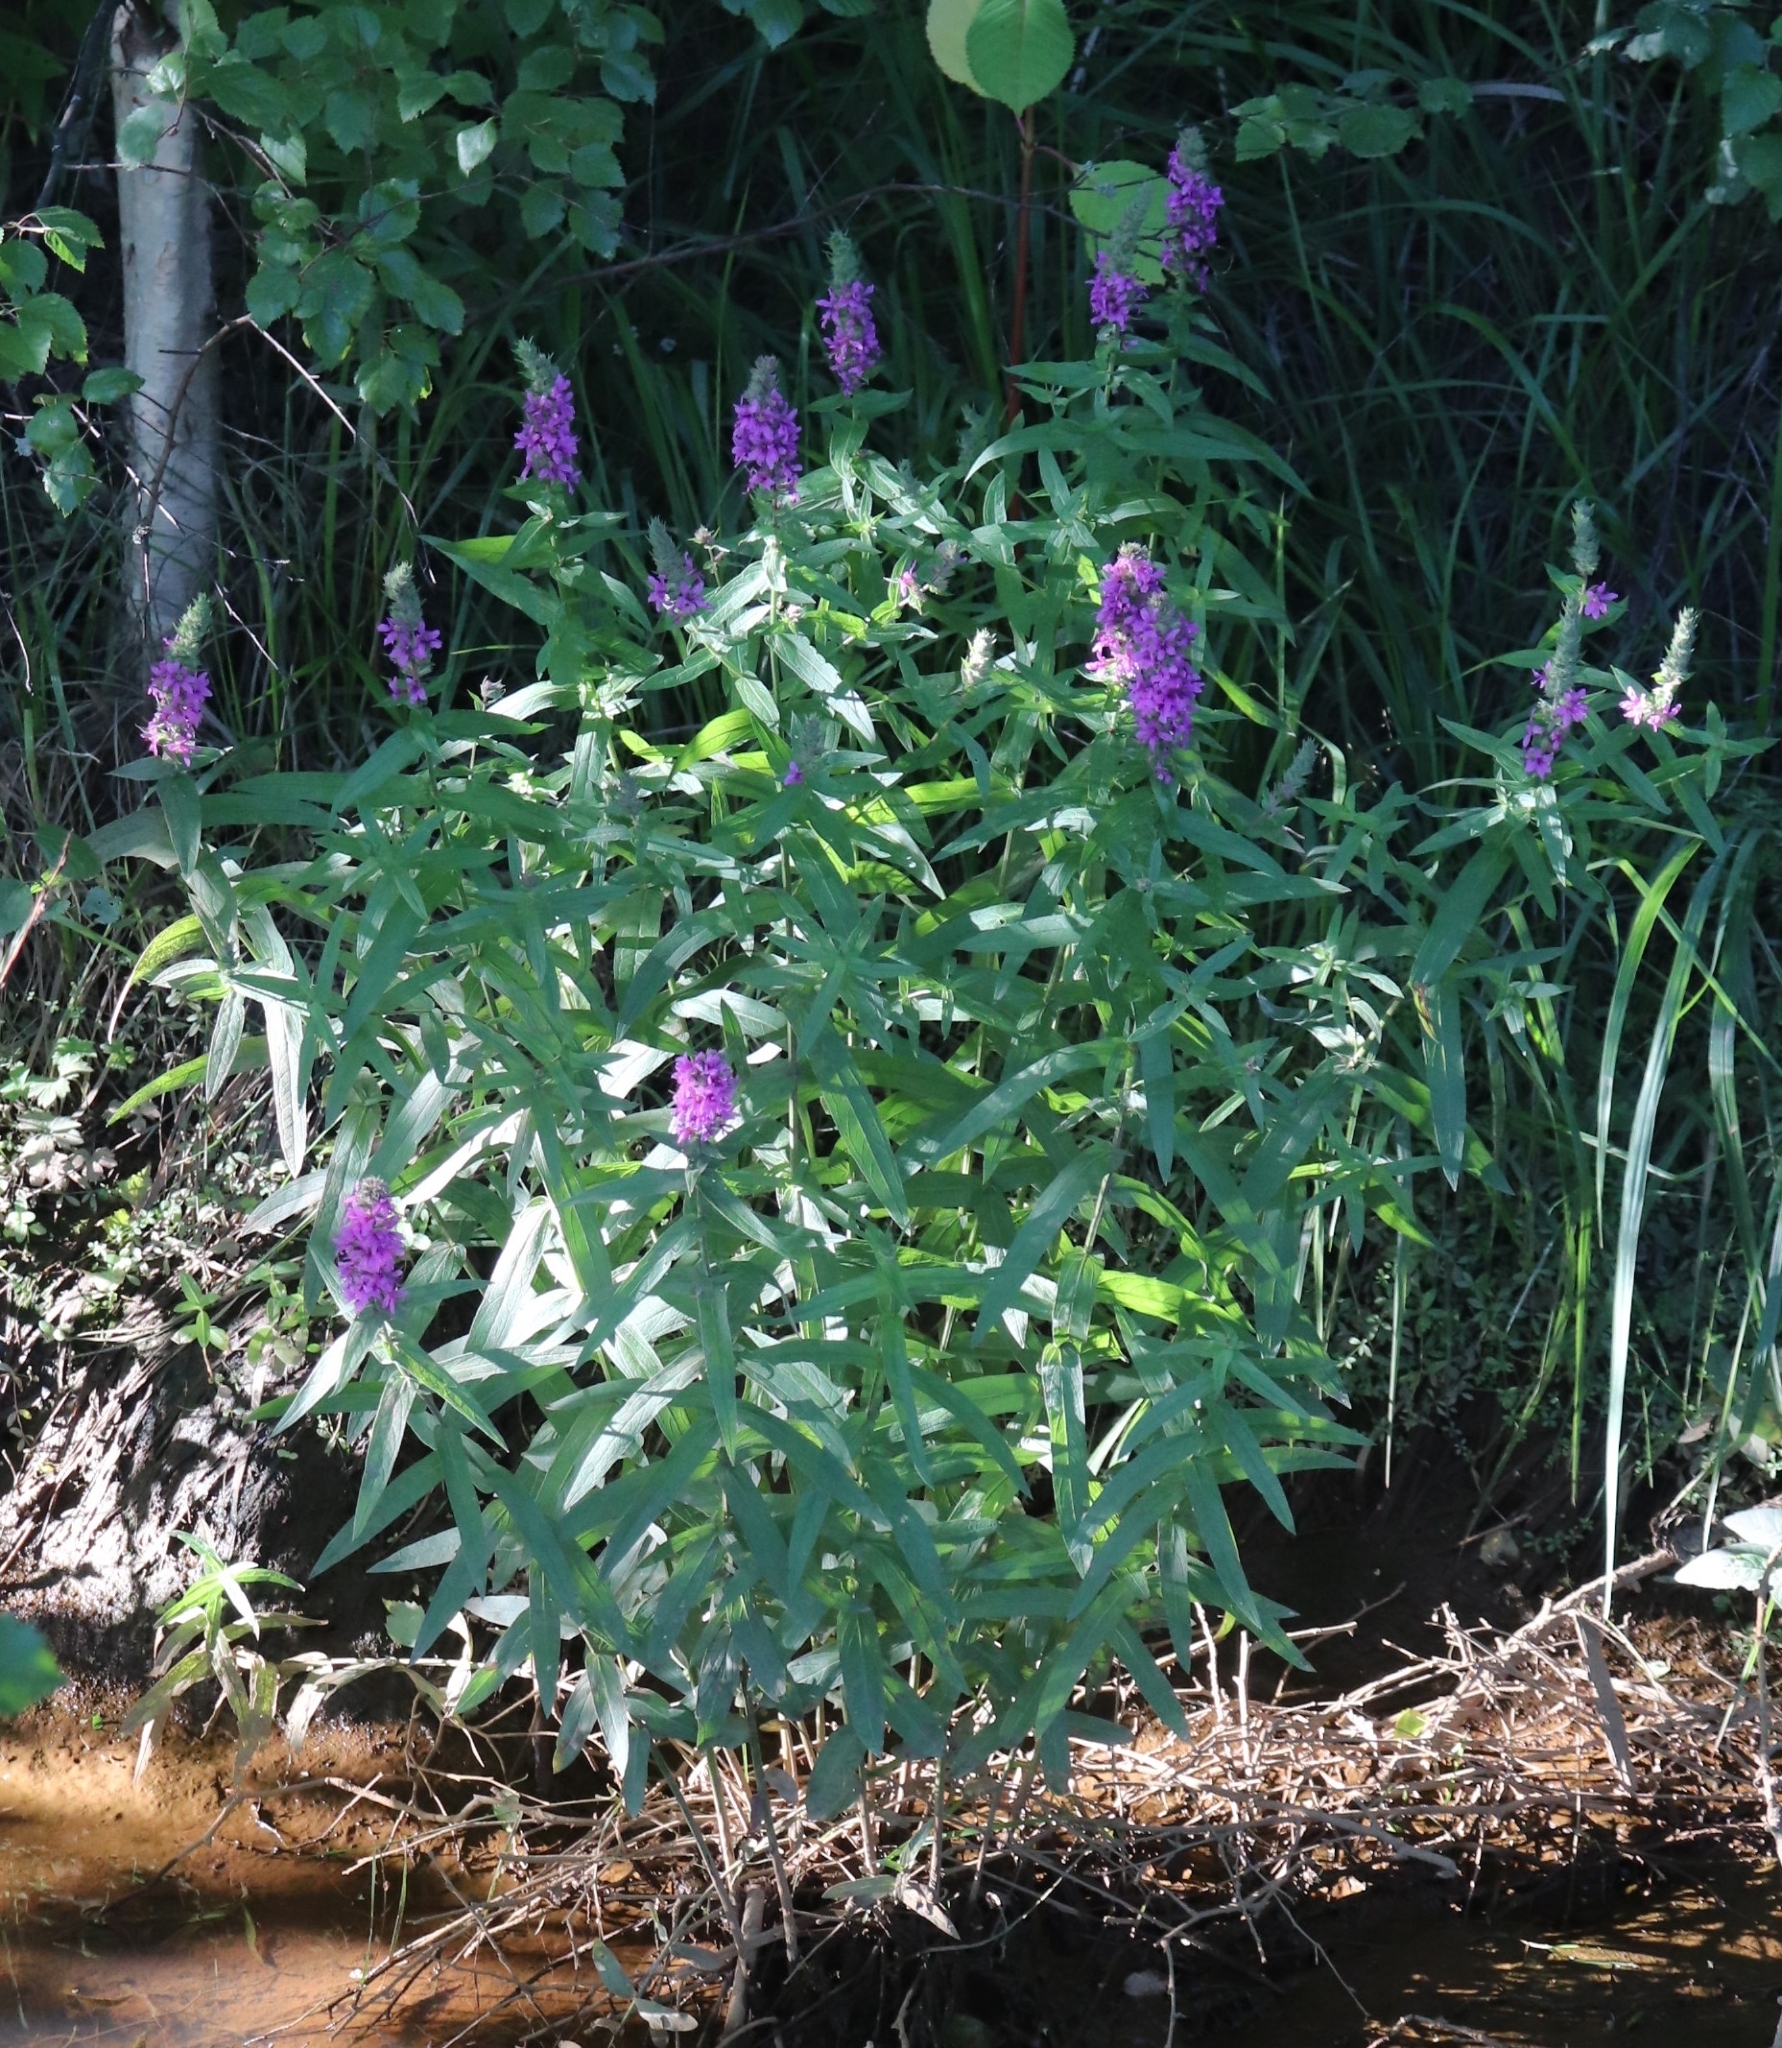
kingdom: Plantae
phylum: Tracheophyta
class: Magnoliopsida
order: Myrtales
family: Lythraceae
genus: Lythrum
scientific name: Lythrum salicaria
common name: Purple loosestrife
